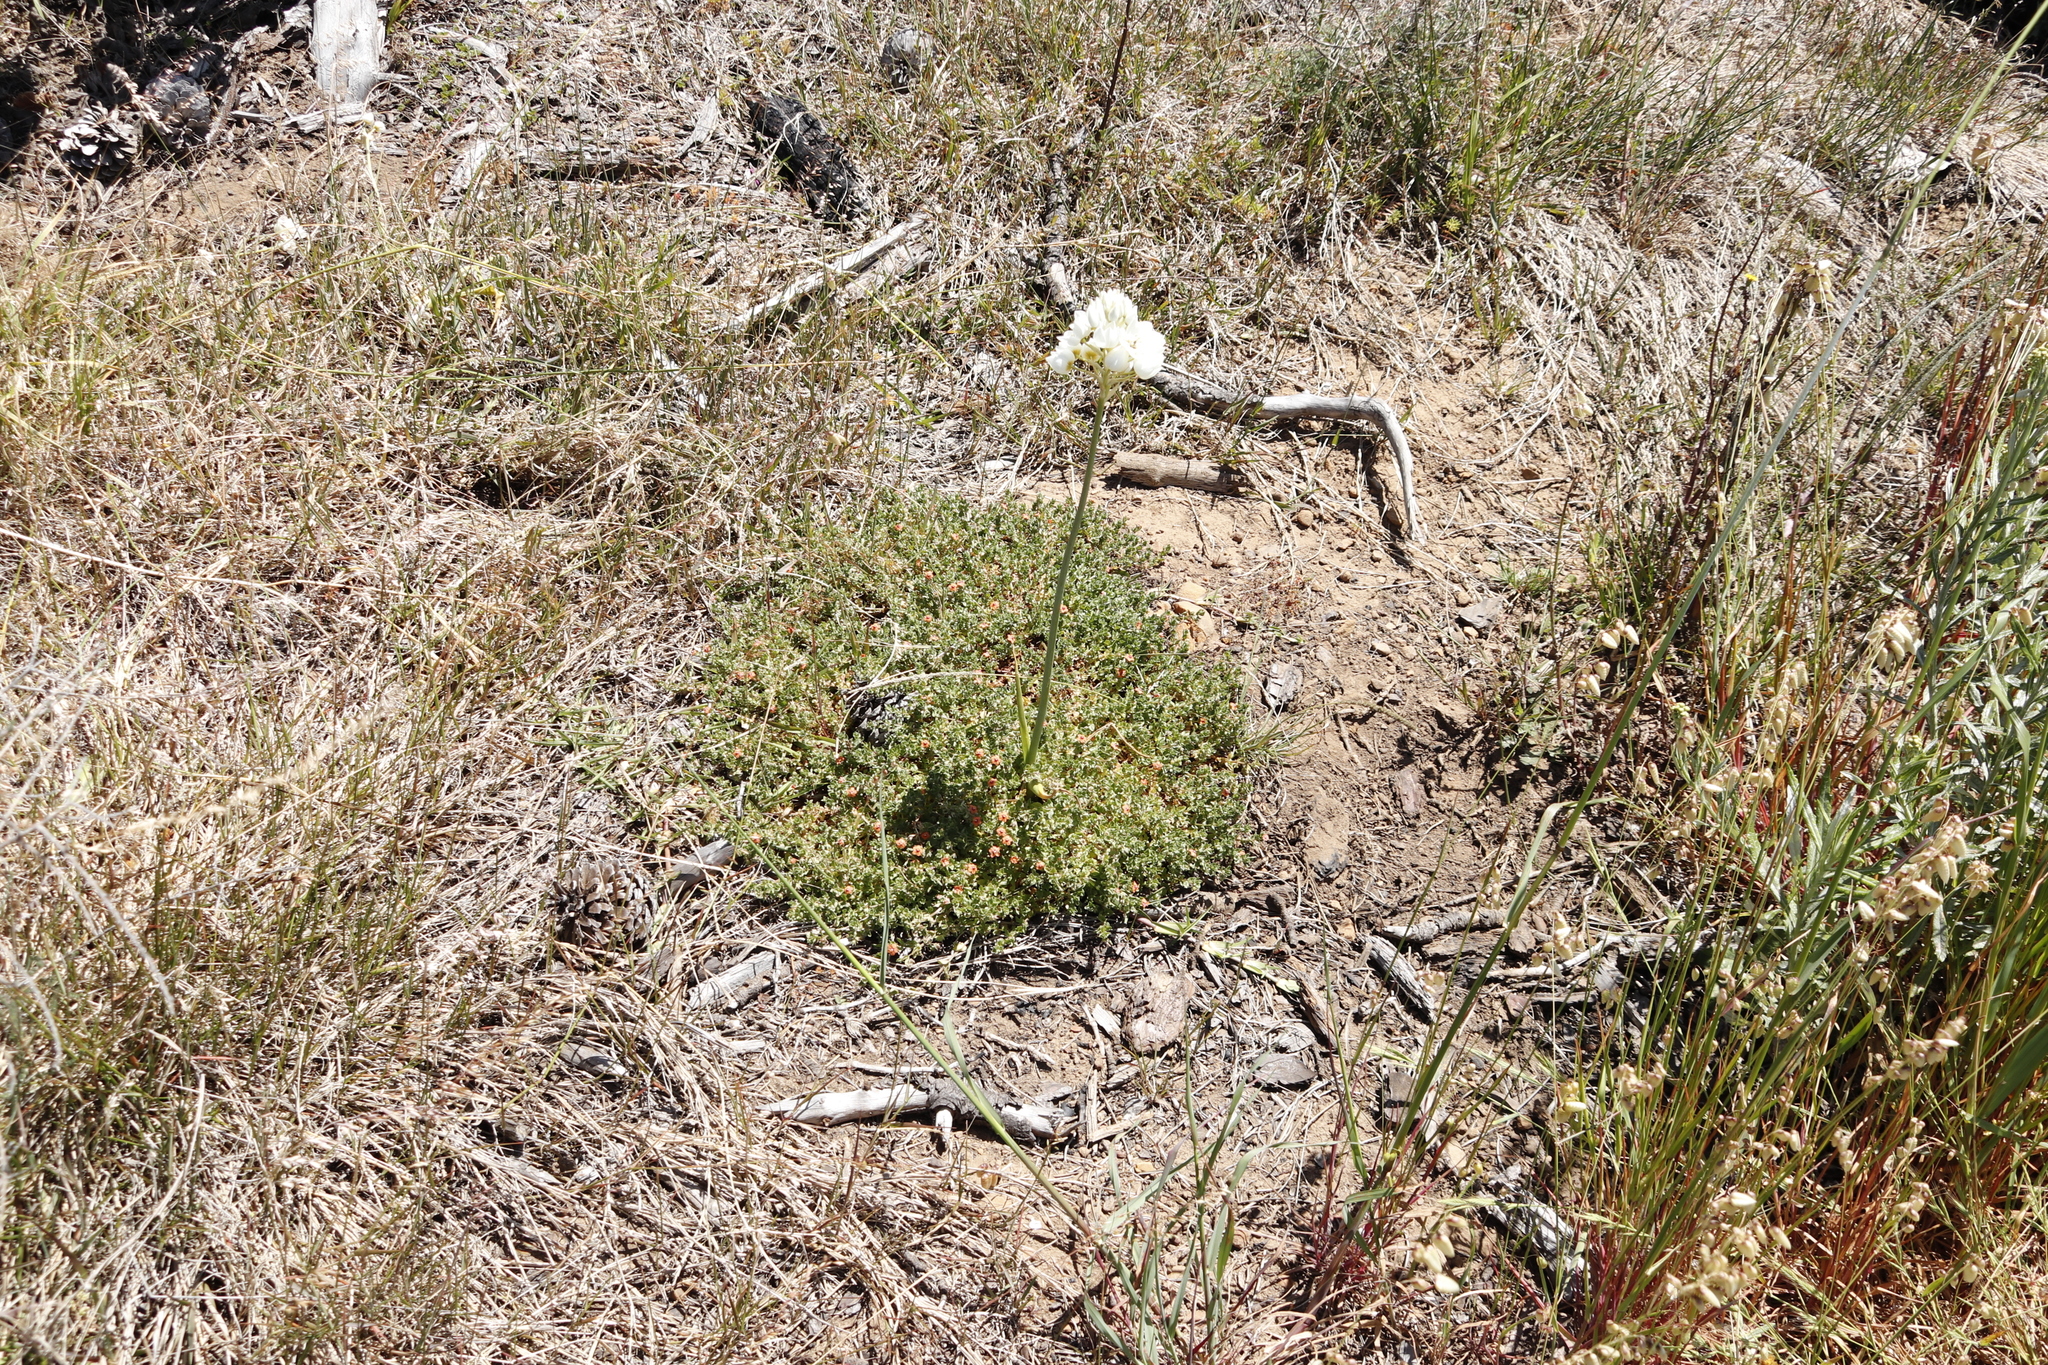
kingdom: Plantae
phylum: Tracheophyta
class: Magnoliopsida
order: Ericales
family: Primulaceae
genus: Lysimachia
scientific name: Lysimachia arvensis
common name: Scarlet pimpernel
